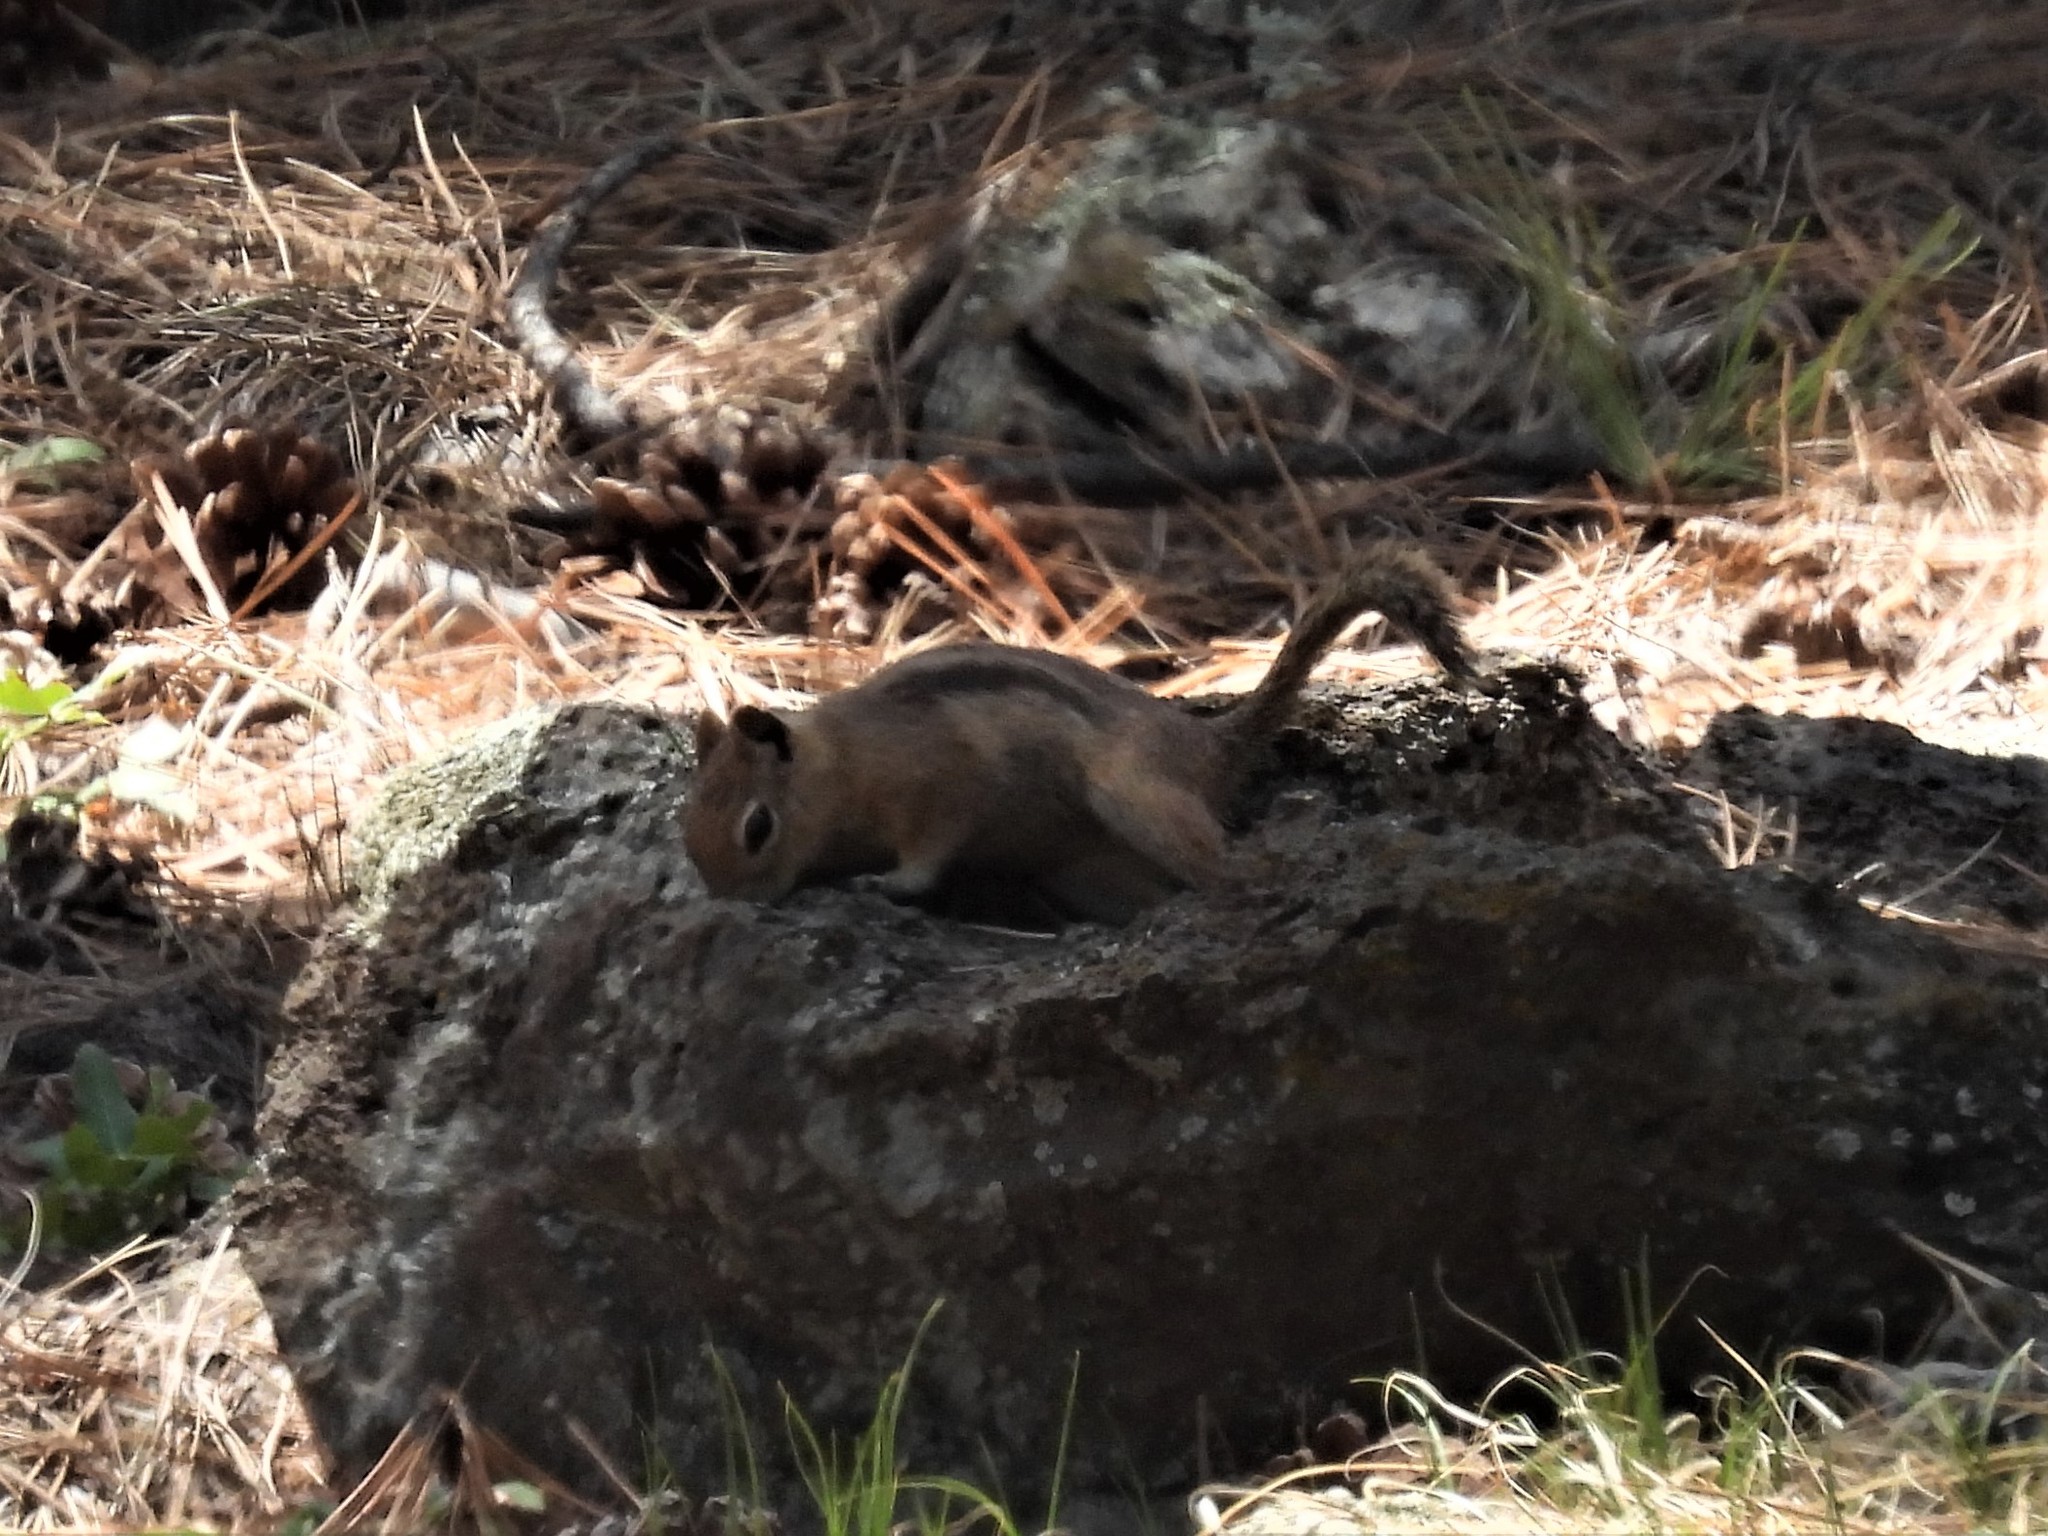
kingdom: Animalia
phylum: Chordata
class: Mammalia
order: Rodentia
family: Sciuridae
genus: Callospermophilus
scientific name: Callospermophilus lateralis
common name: Golden-mantled ground squirrel
